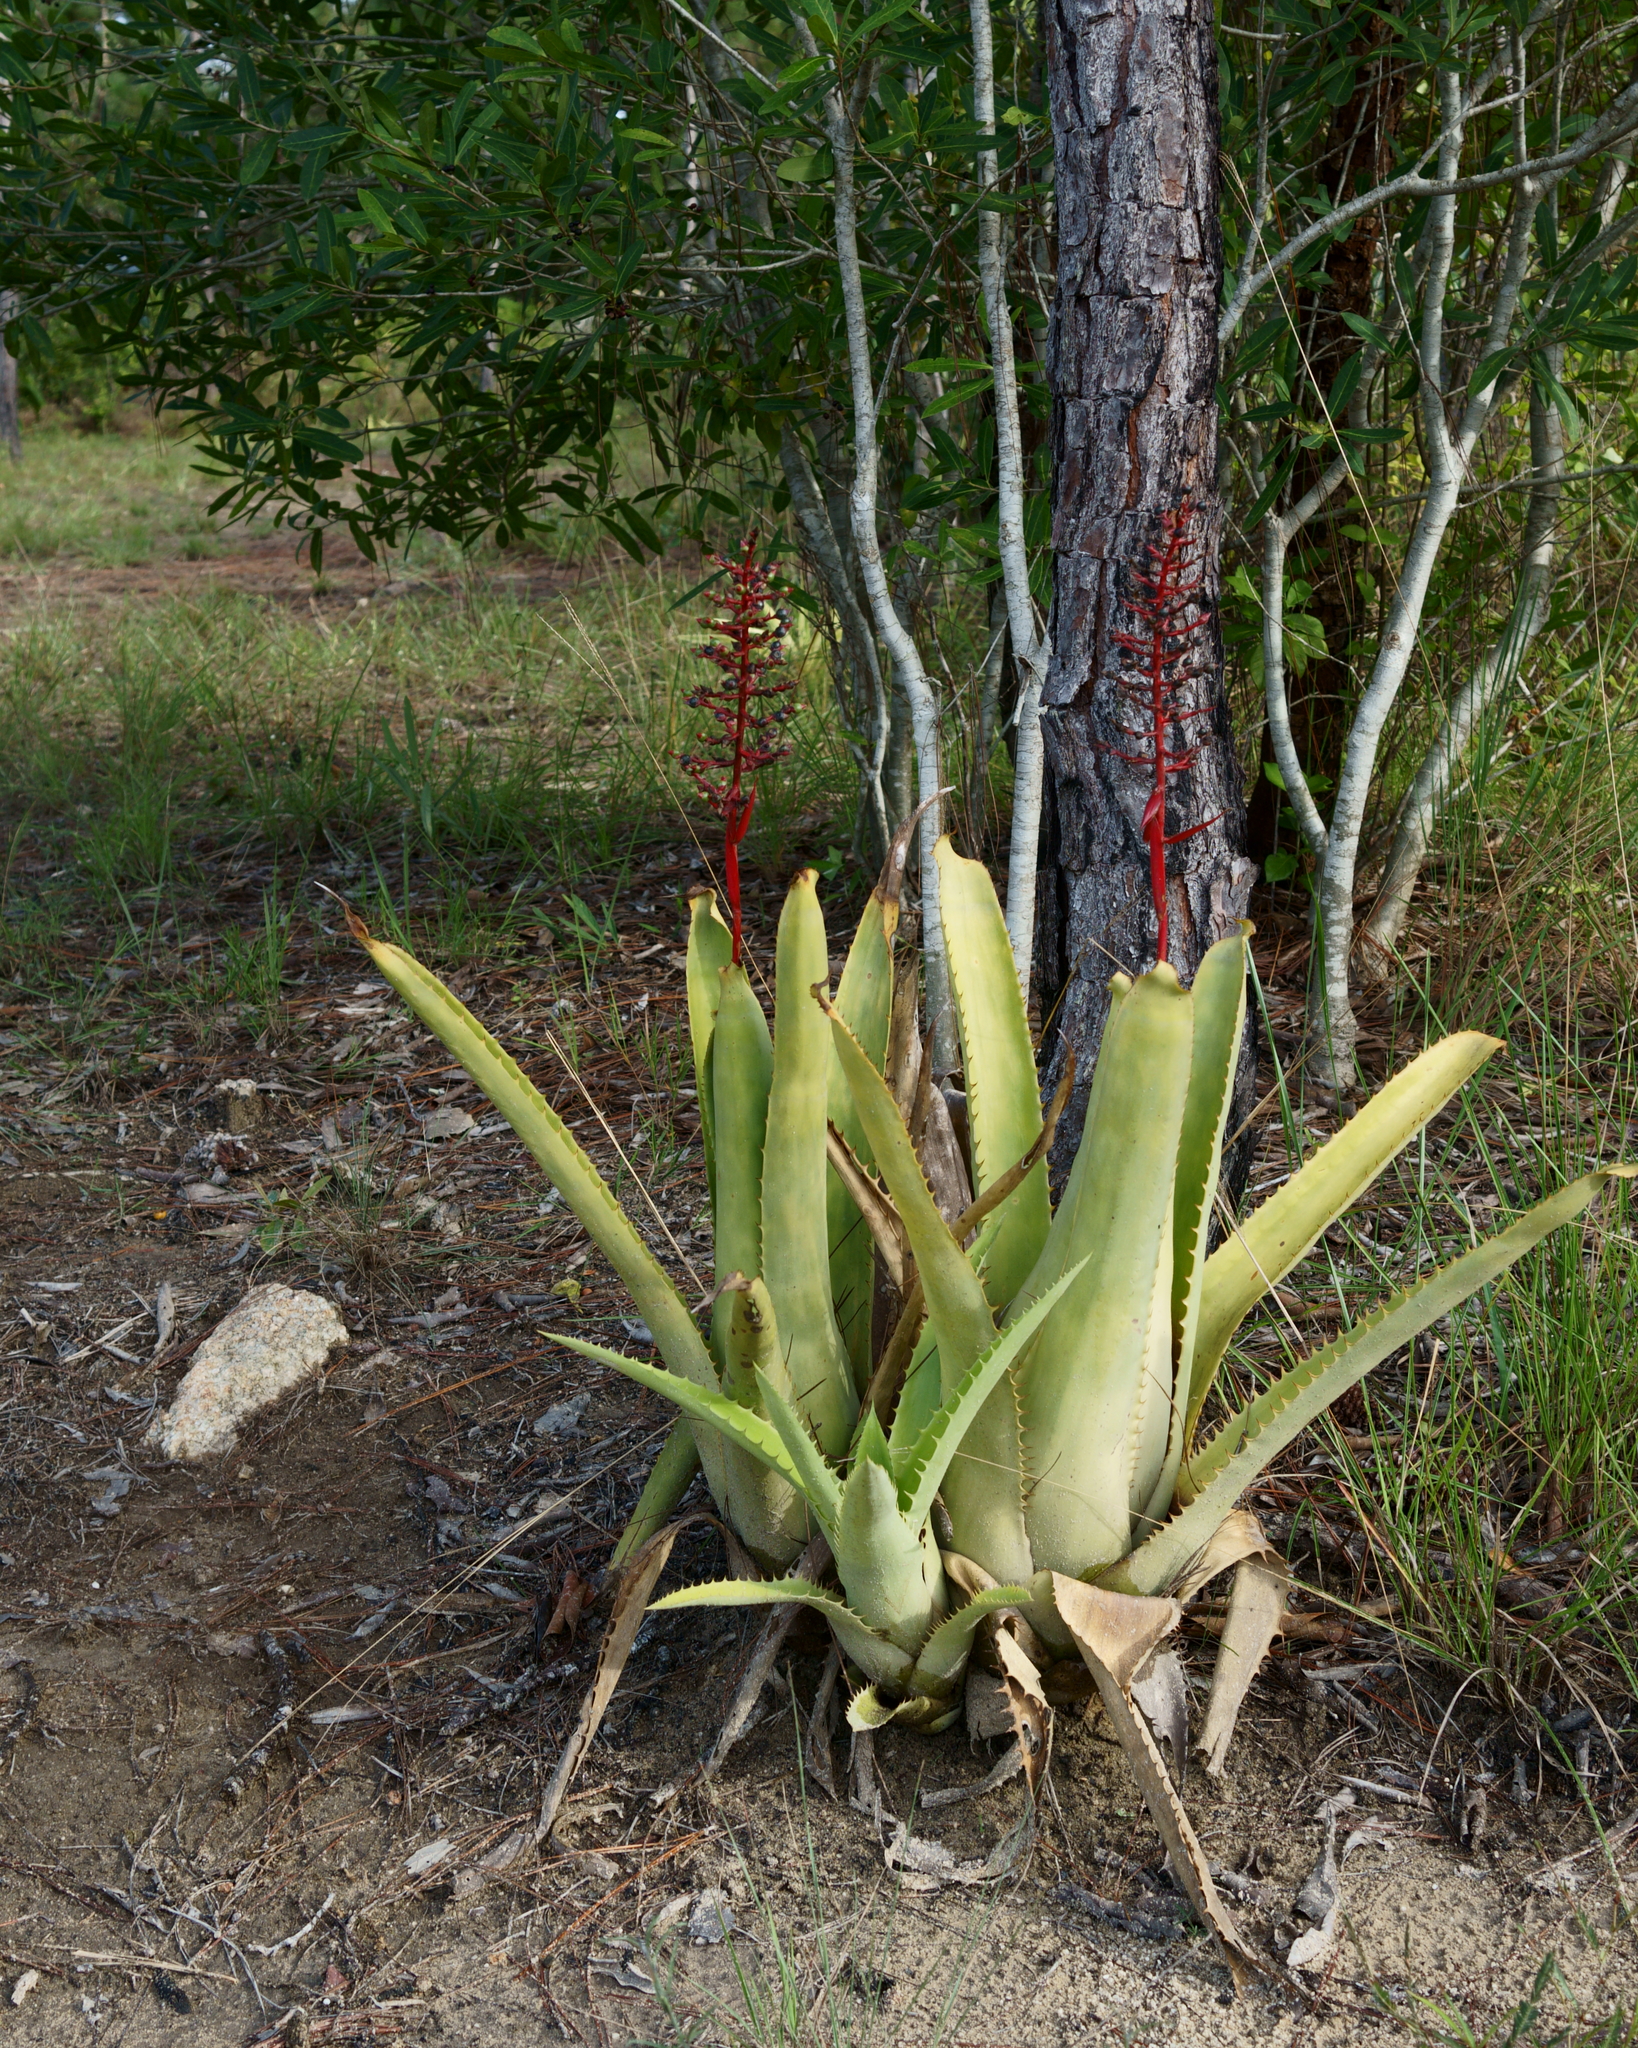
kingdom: Plantae
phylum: Tracheophyta
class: Liliopsida
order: Poales
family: Bromeliaceae
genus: Aechmea
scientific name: Aechmea bracteata
